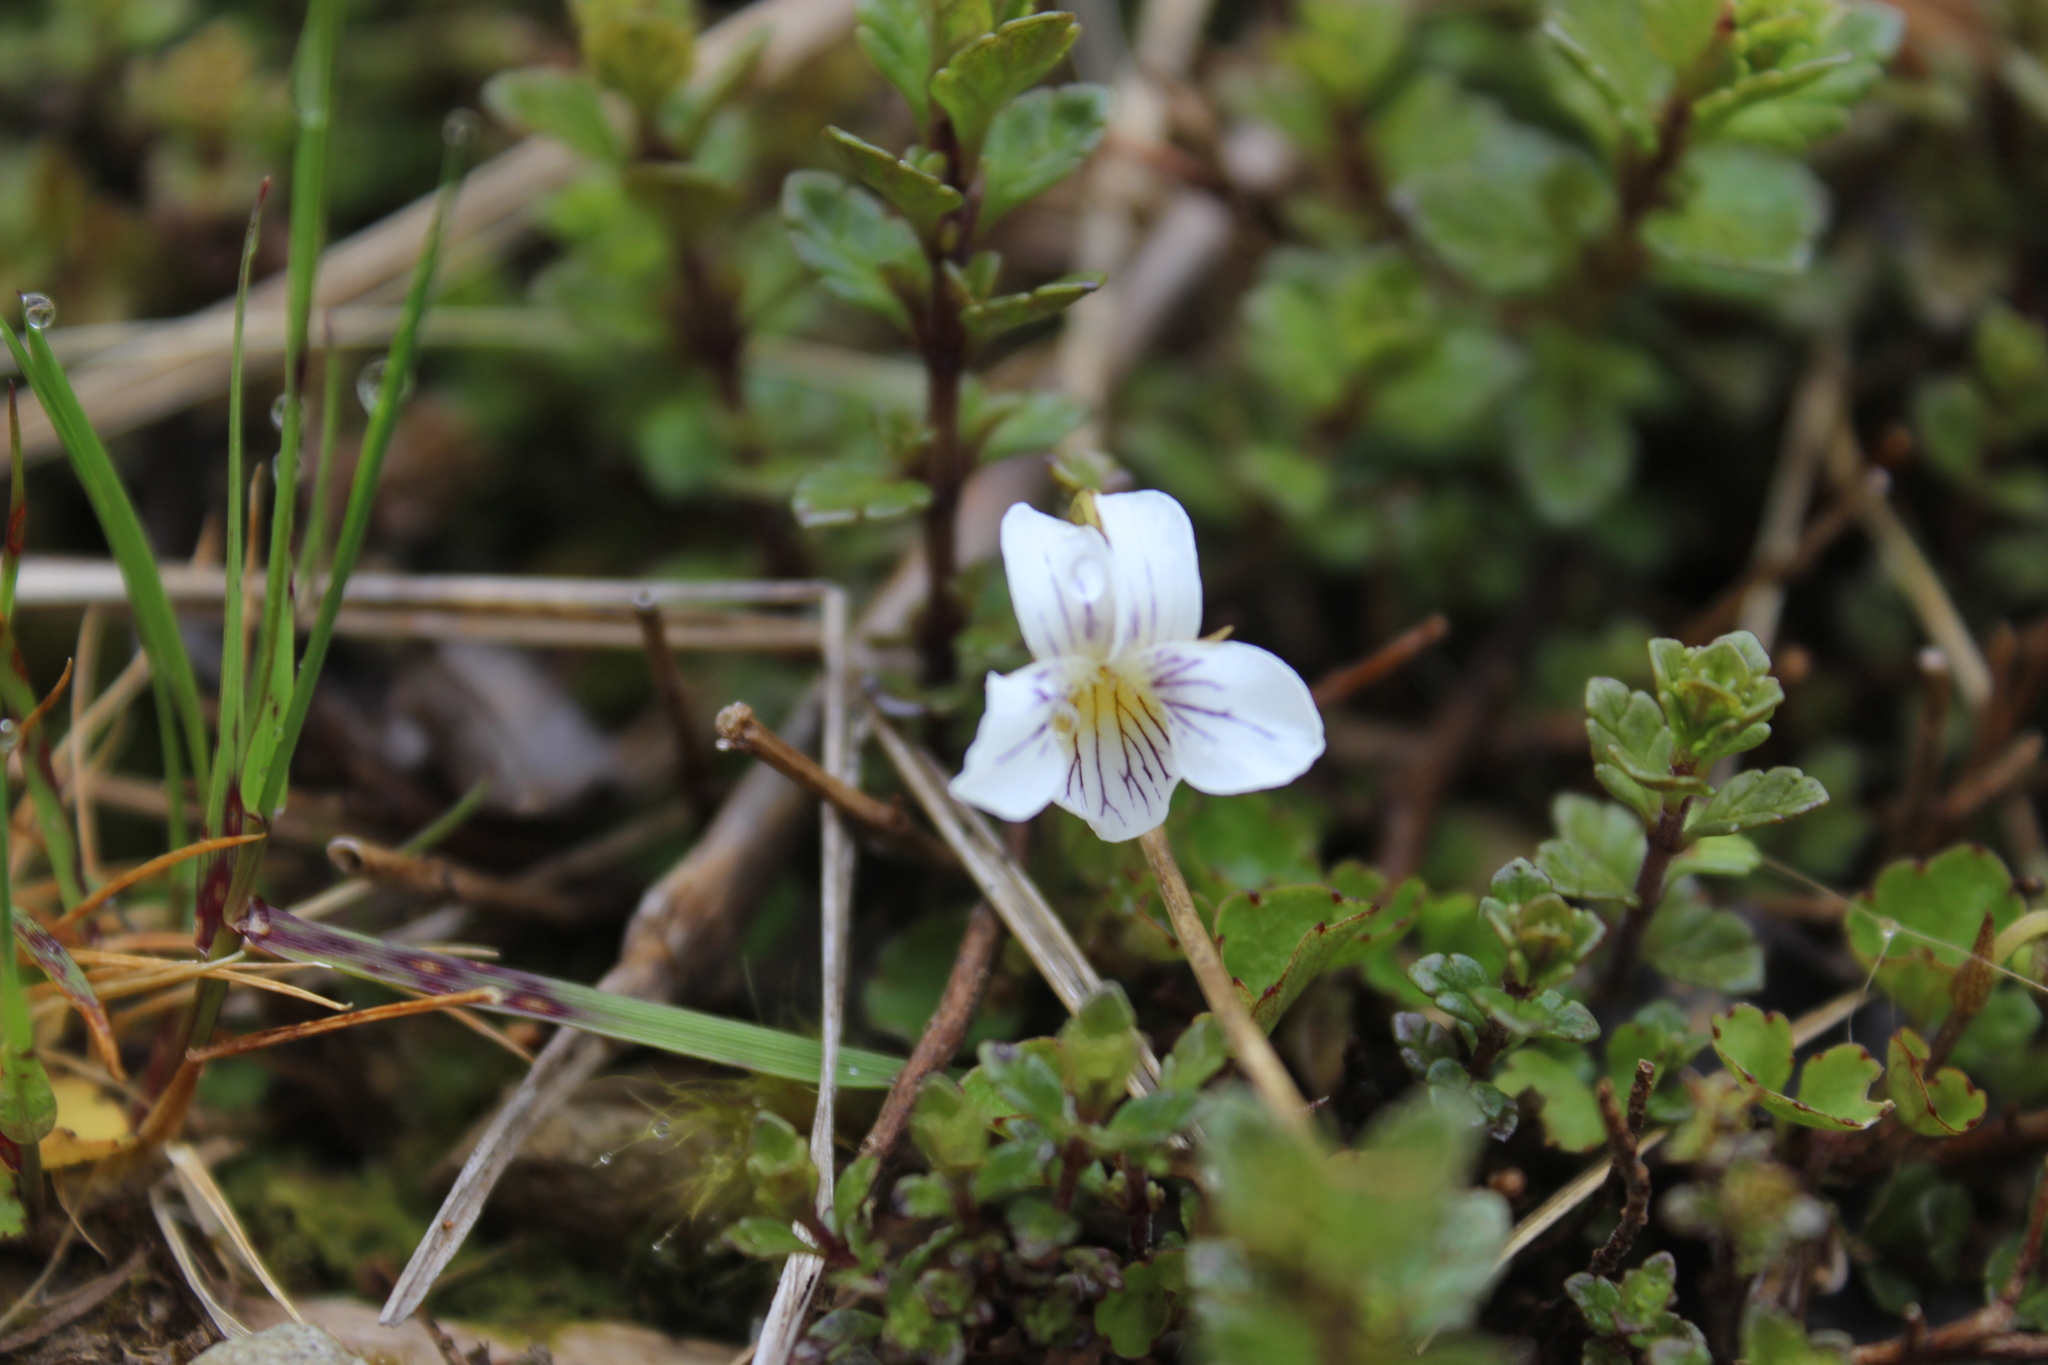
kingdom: Plantae
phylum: Tracheophyta
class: Magnoliopsida
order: Malpighiales
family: Violaceae
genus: Viola
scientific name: Viola cunninghamii
